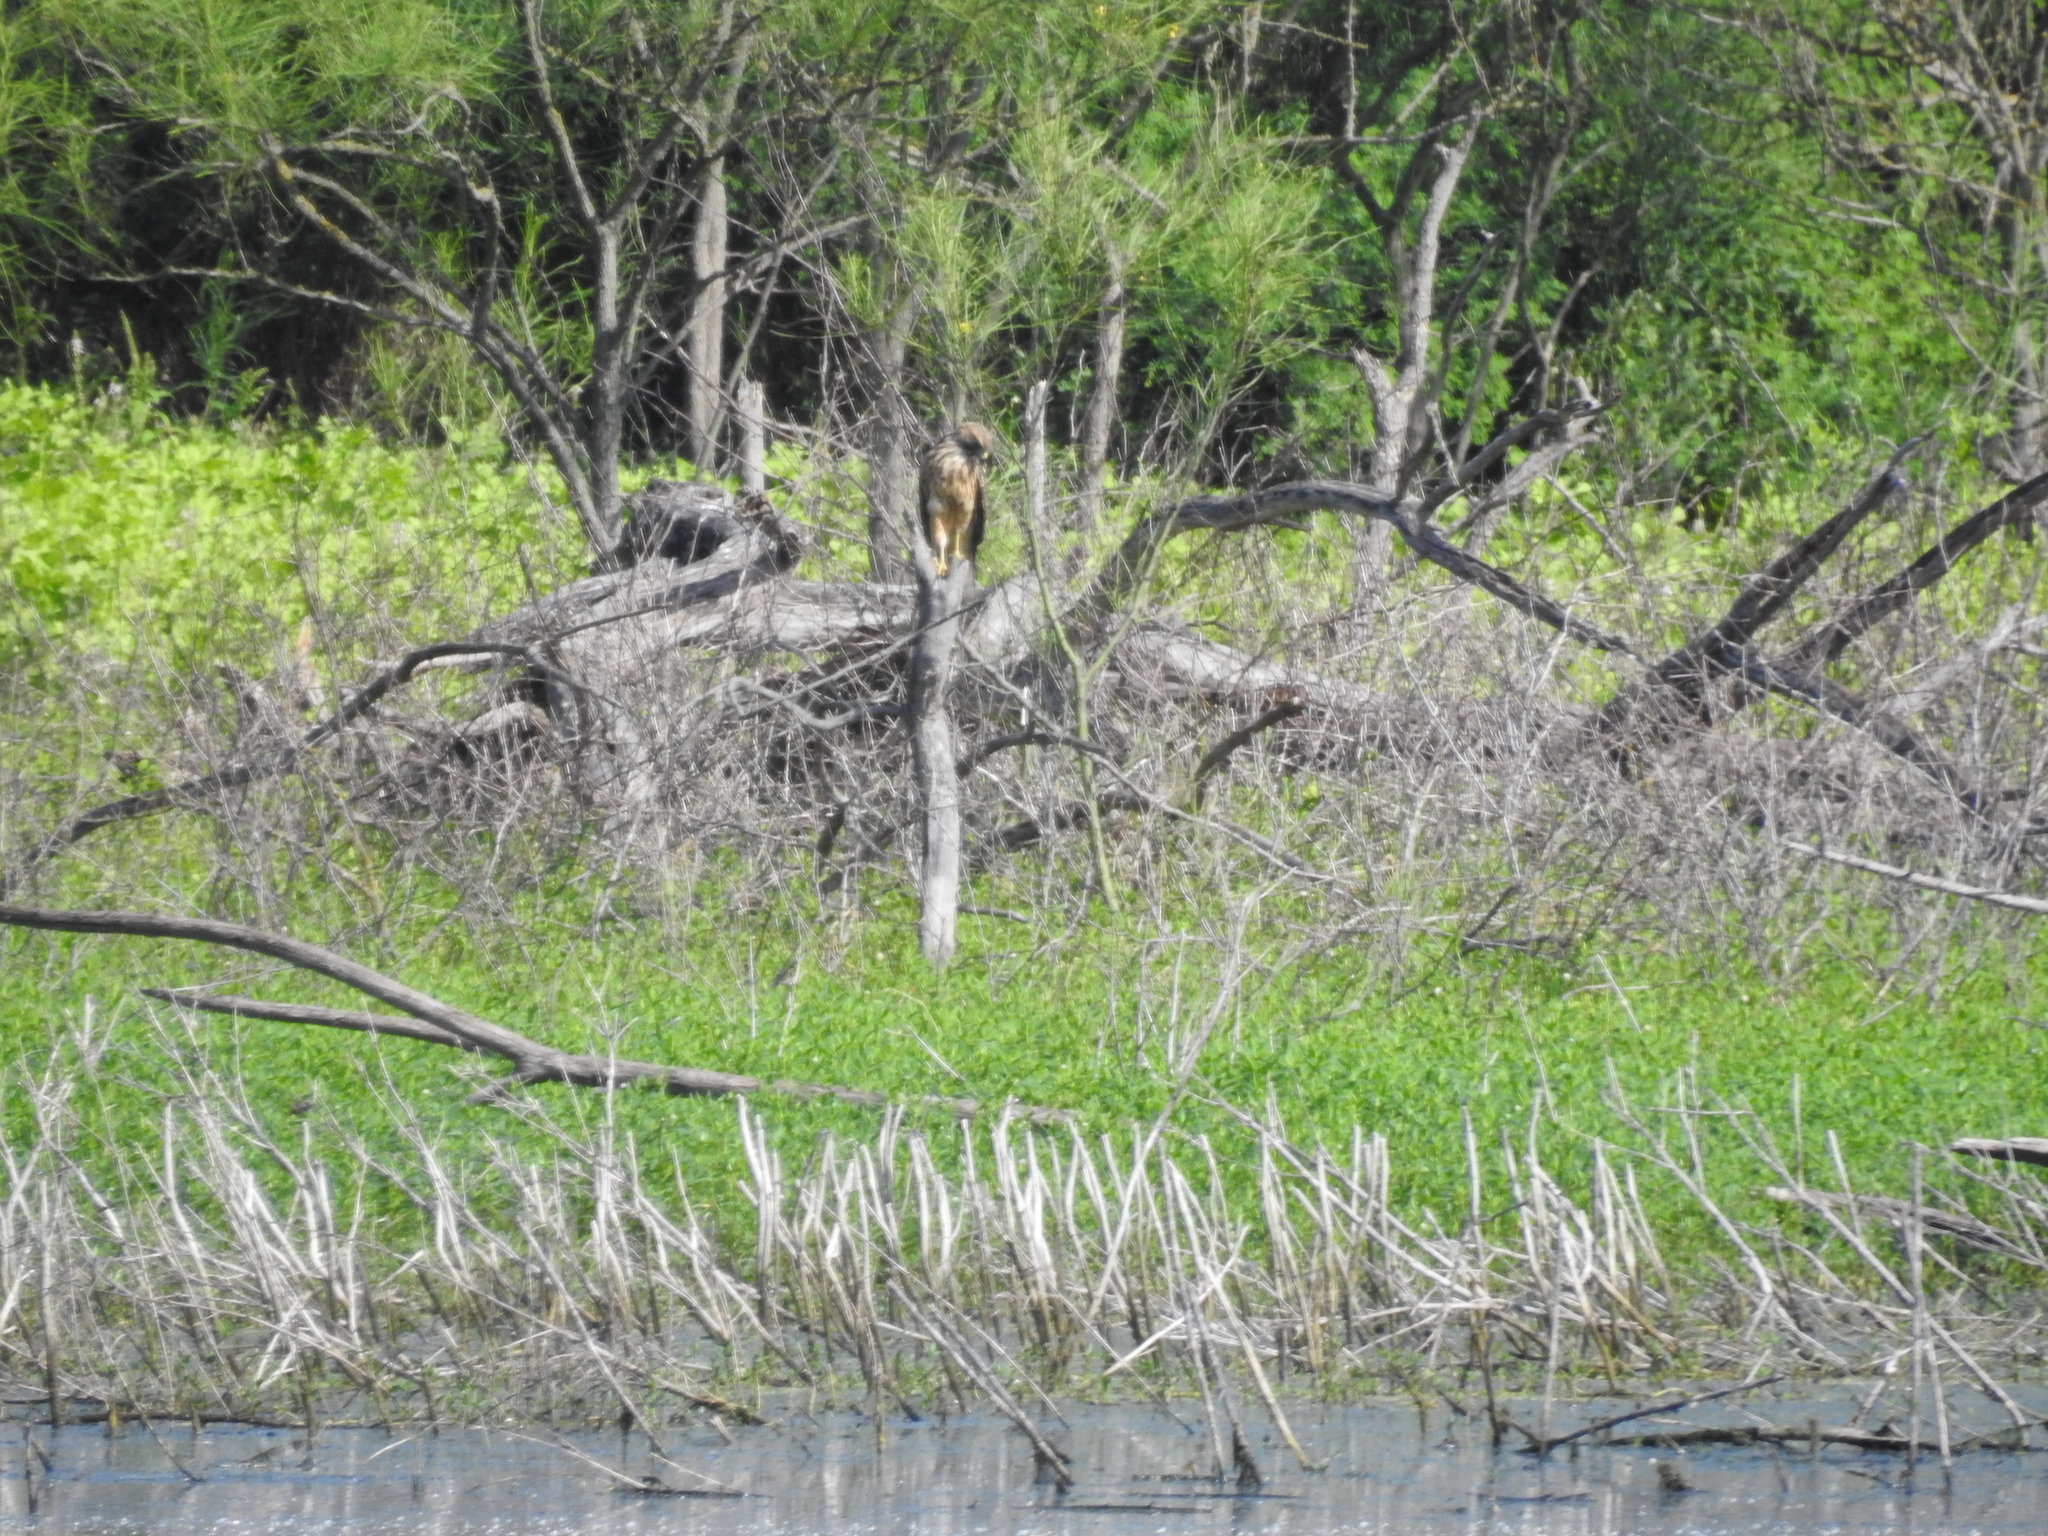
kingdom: Animalia
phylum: Chordata
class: Aves
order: Accipitriformes
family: Accipitridae
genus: Buteo
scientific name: Buteo lineatus
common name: Red-shouldered hawk
